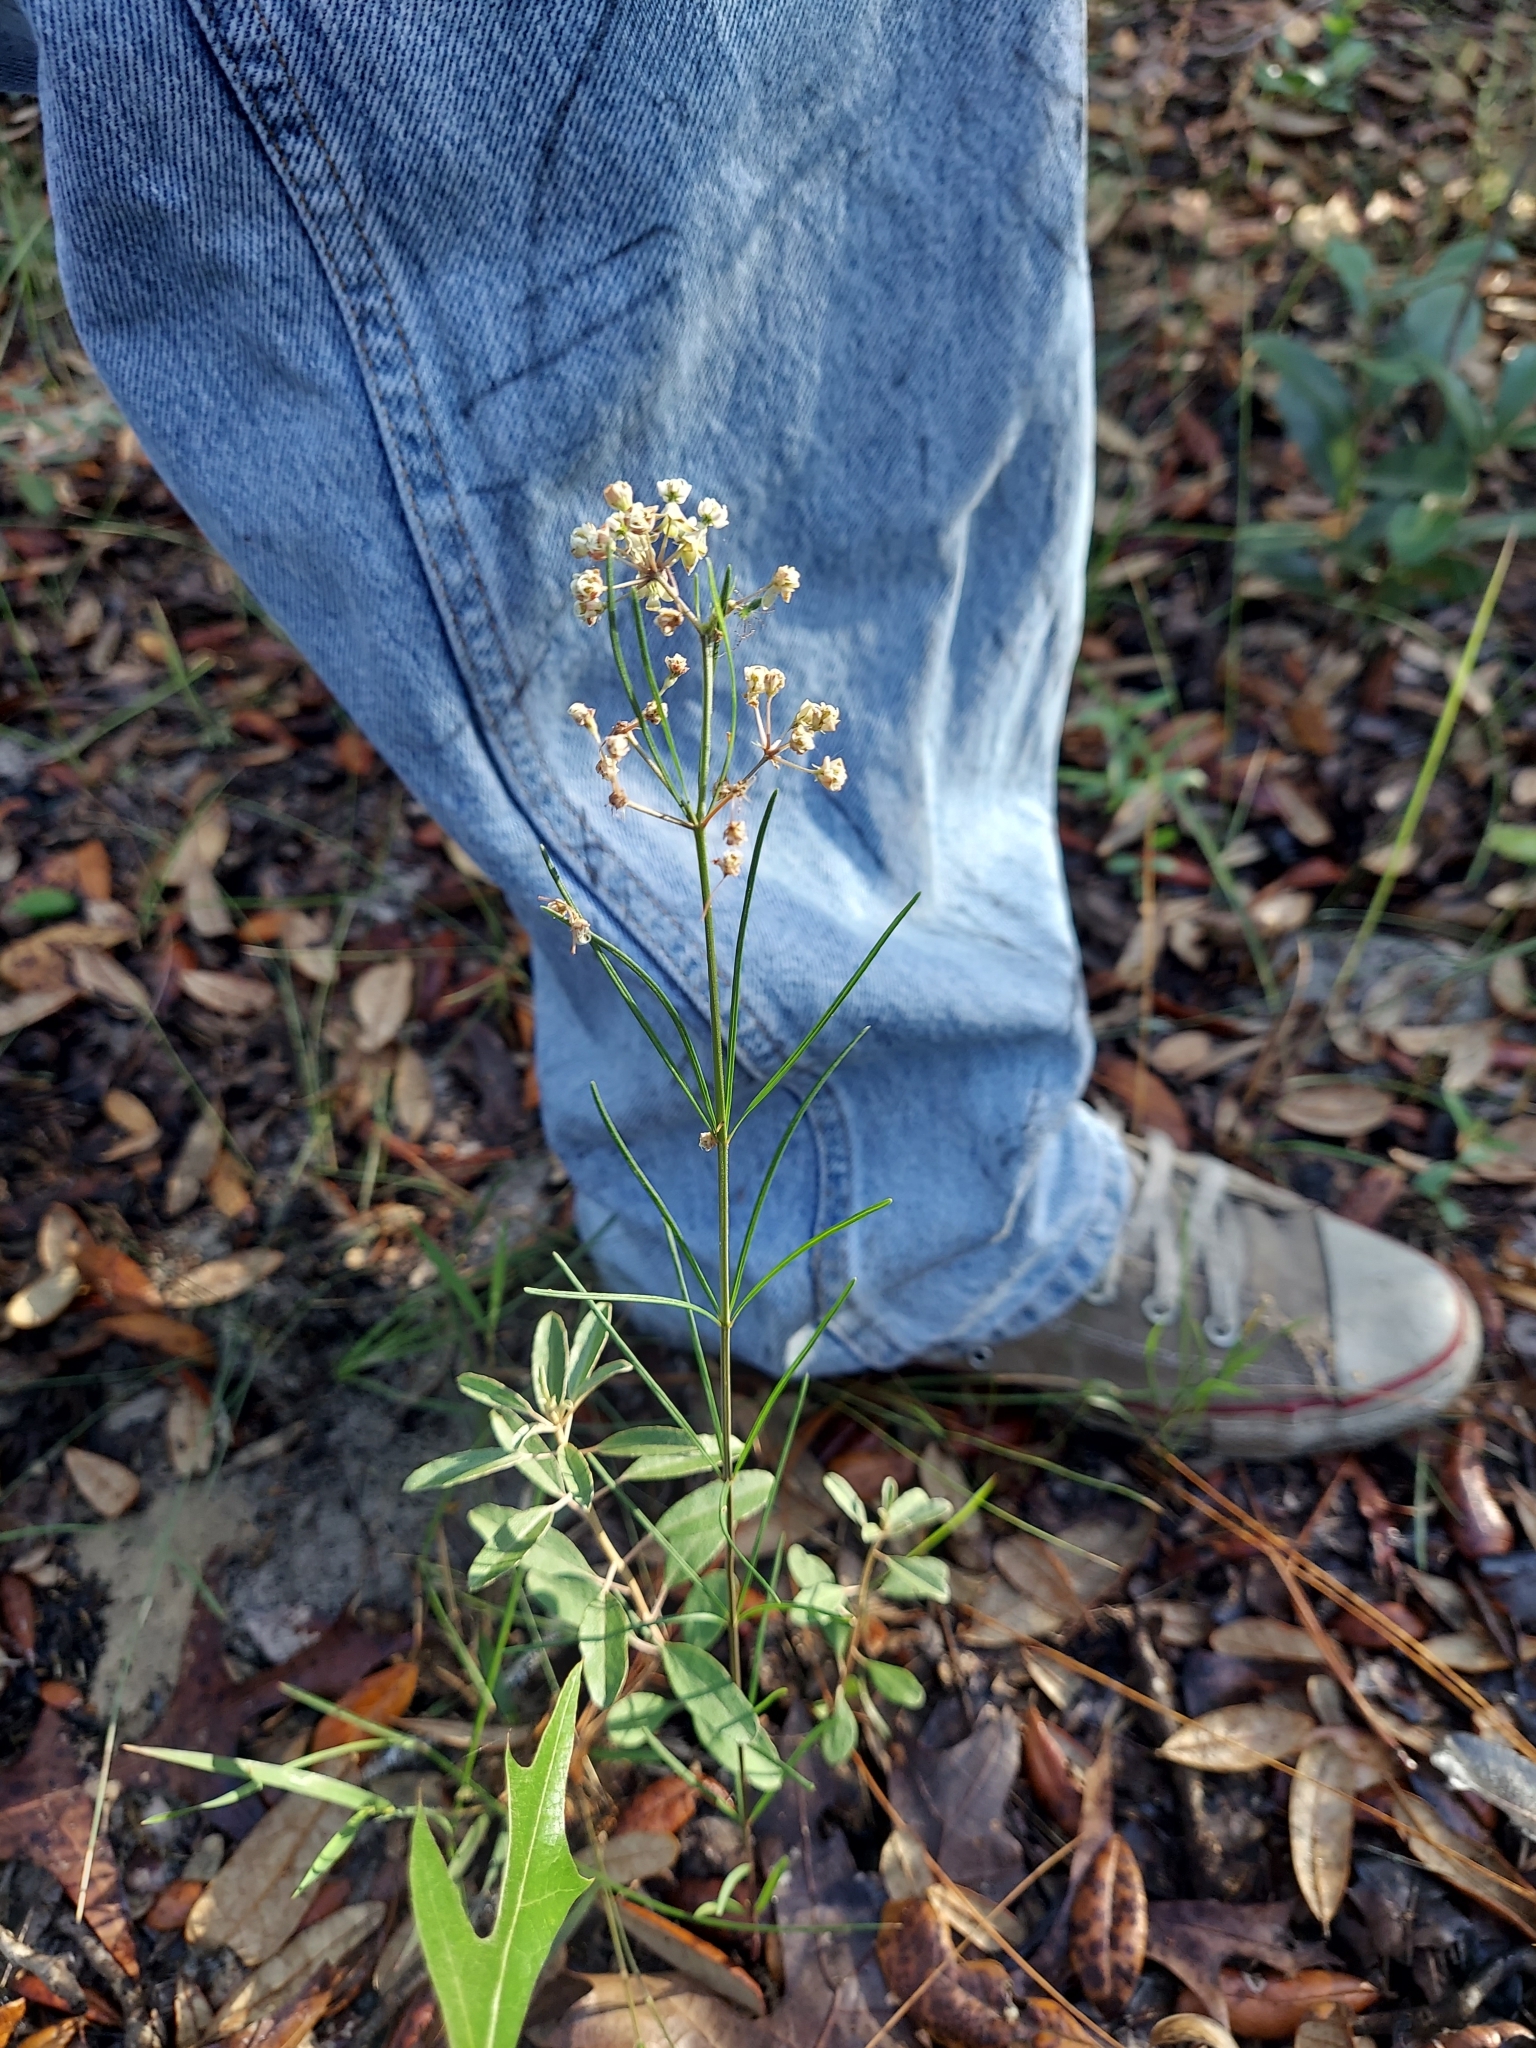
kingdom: Plantae
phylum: Tracheophyta
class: Magnoliopsida
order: Gentianales
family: Apocynaceae
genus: Asclepias
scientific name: Asclepias verticillata
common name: Eastern whorled milkweed
